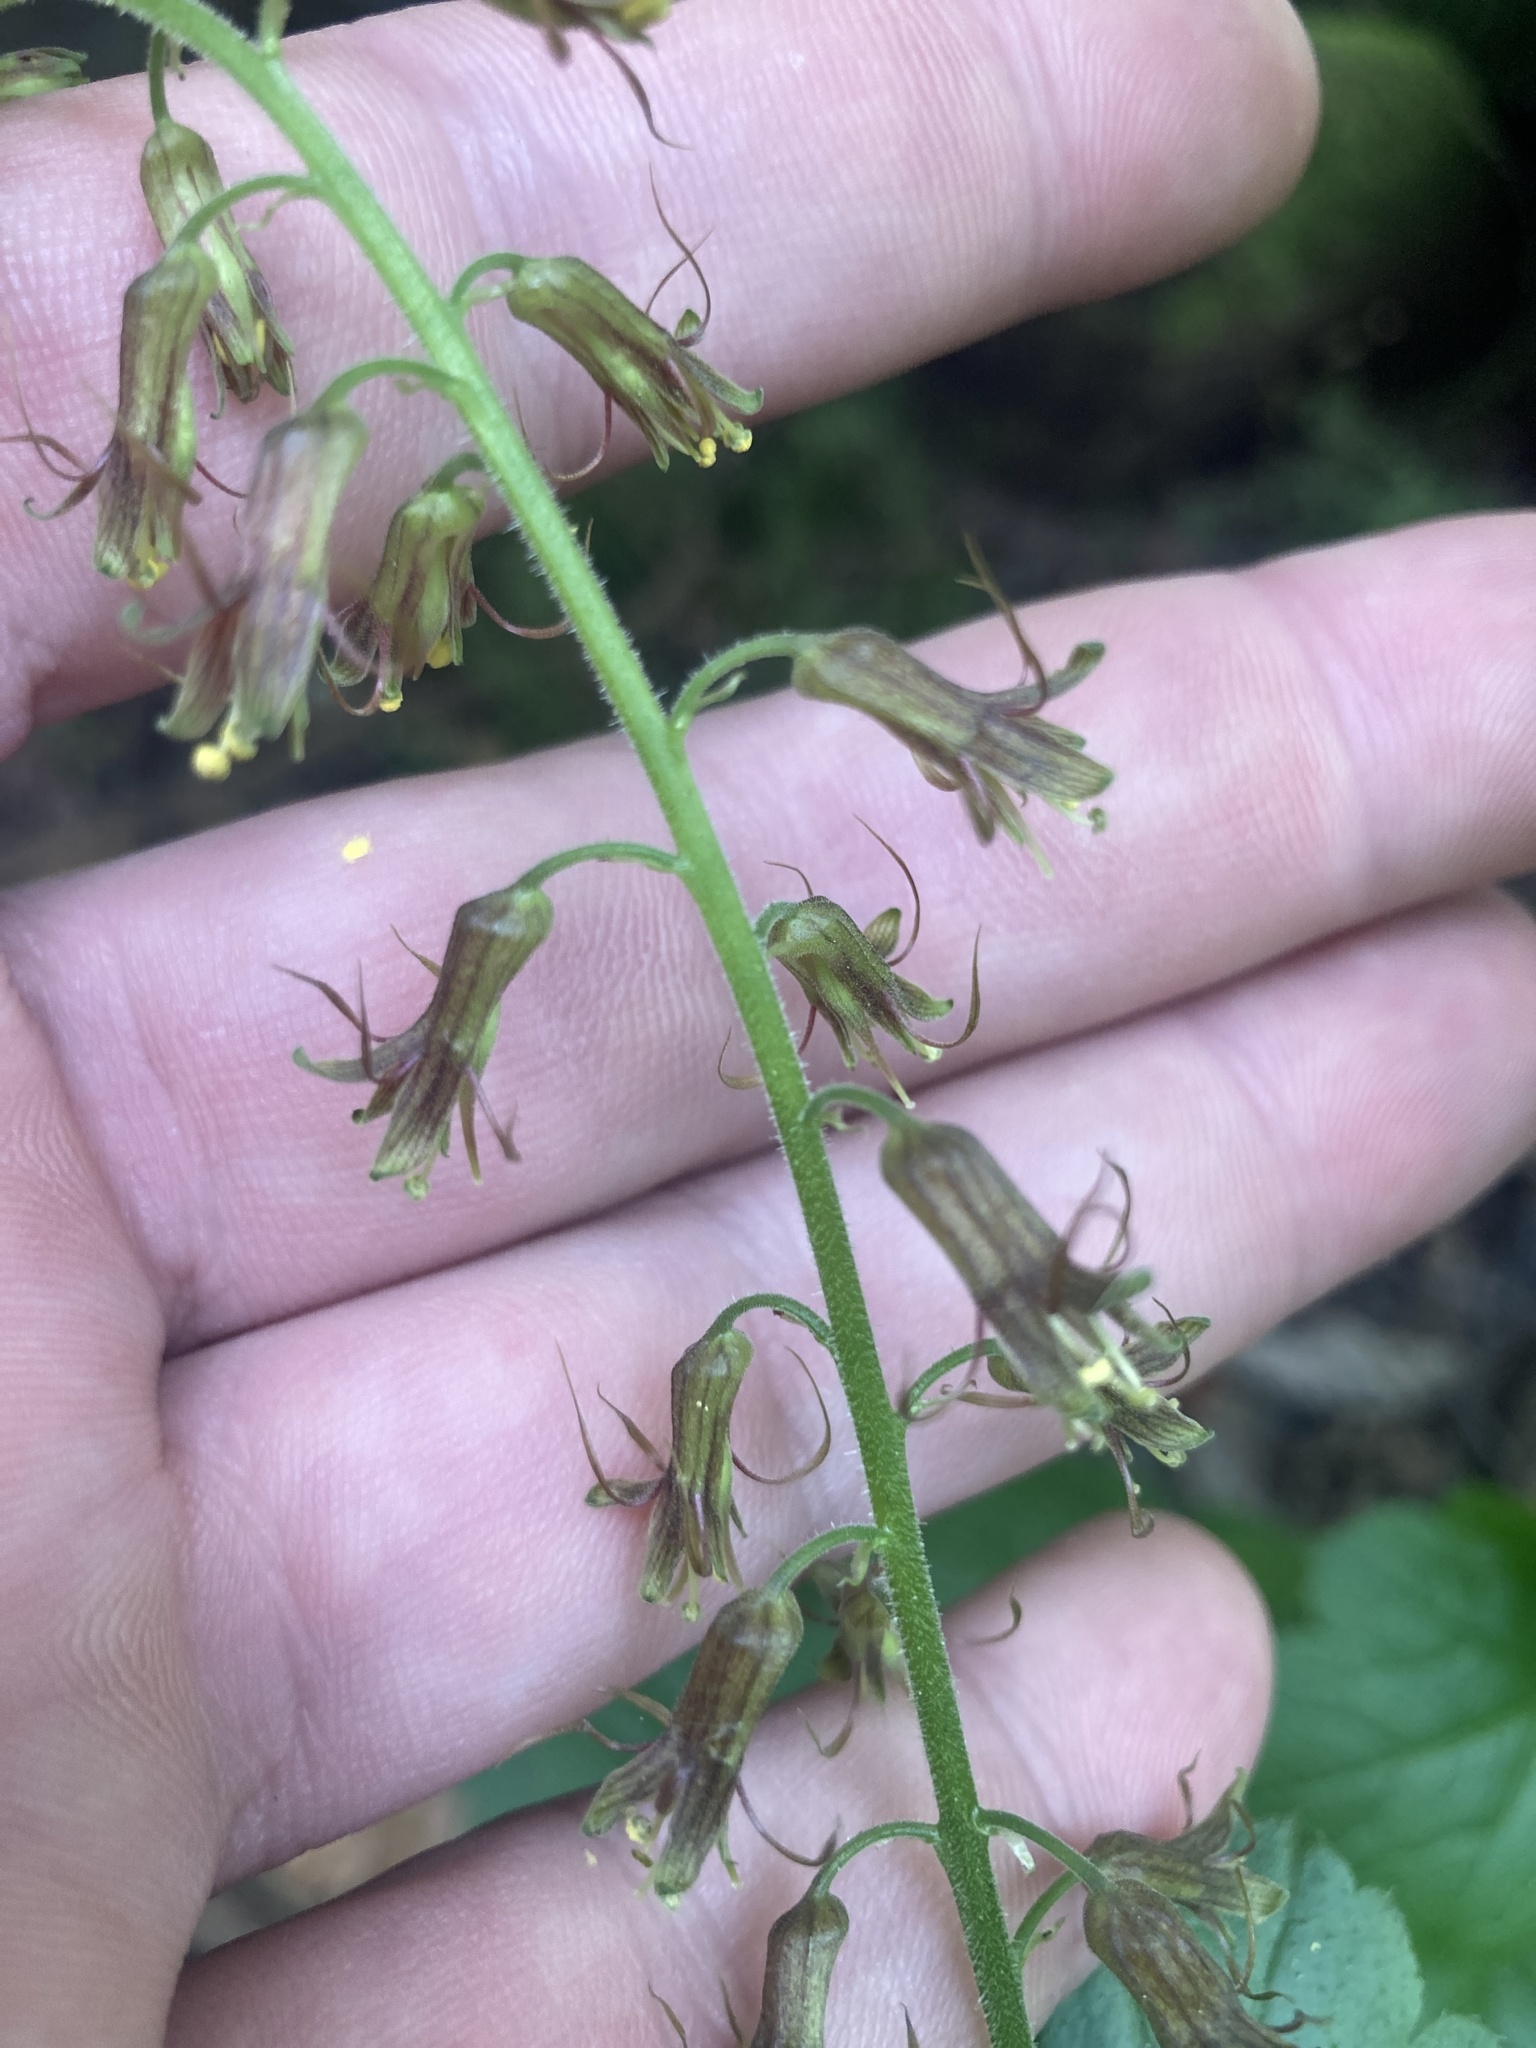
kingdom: Plantae
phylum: Tracheophyta
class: Magnoliopsida
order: Saxifragales
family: Saxifragaceae
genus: Tolmiea
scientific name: Tolmiea menziesii
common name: Pick-a-back-plant
